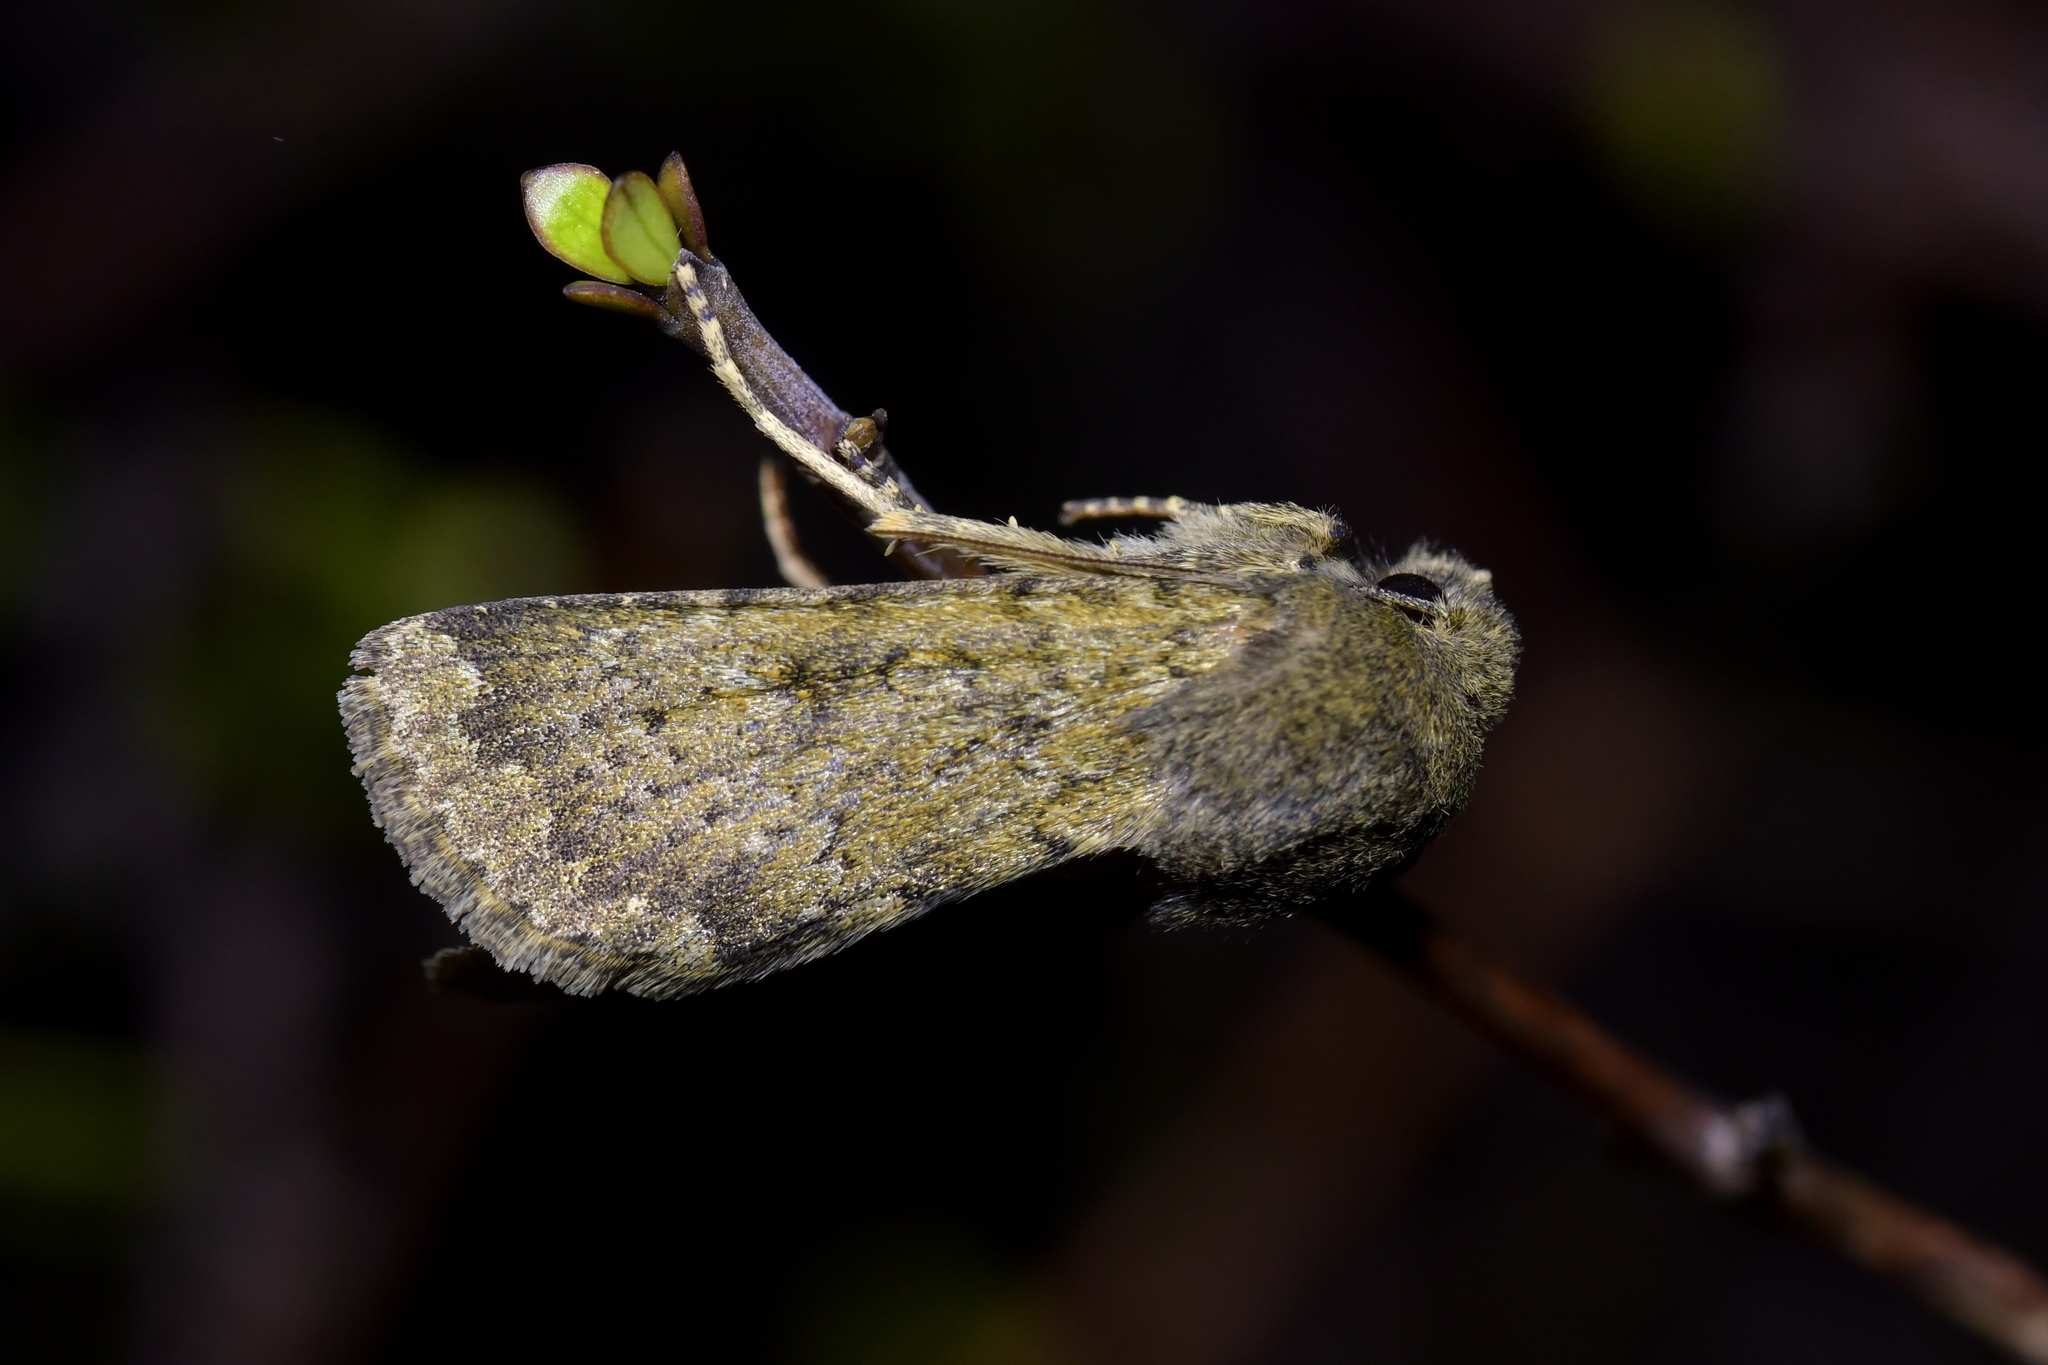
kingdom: Animalia
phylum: Arthropoda
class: Insecta
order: Lepidoptera
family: Noctuidae
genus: Ichneutica
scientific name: Ichneutica moderata
